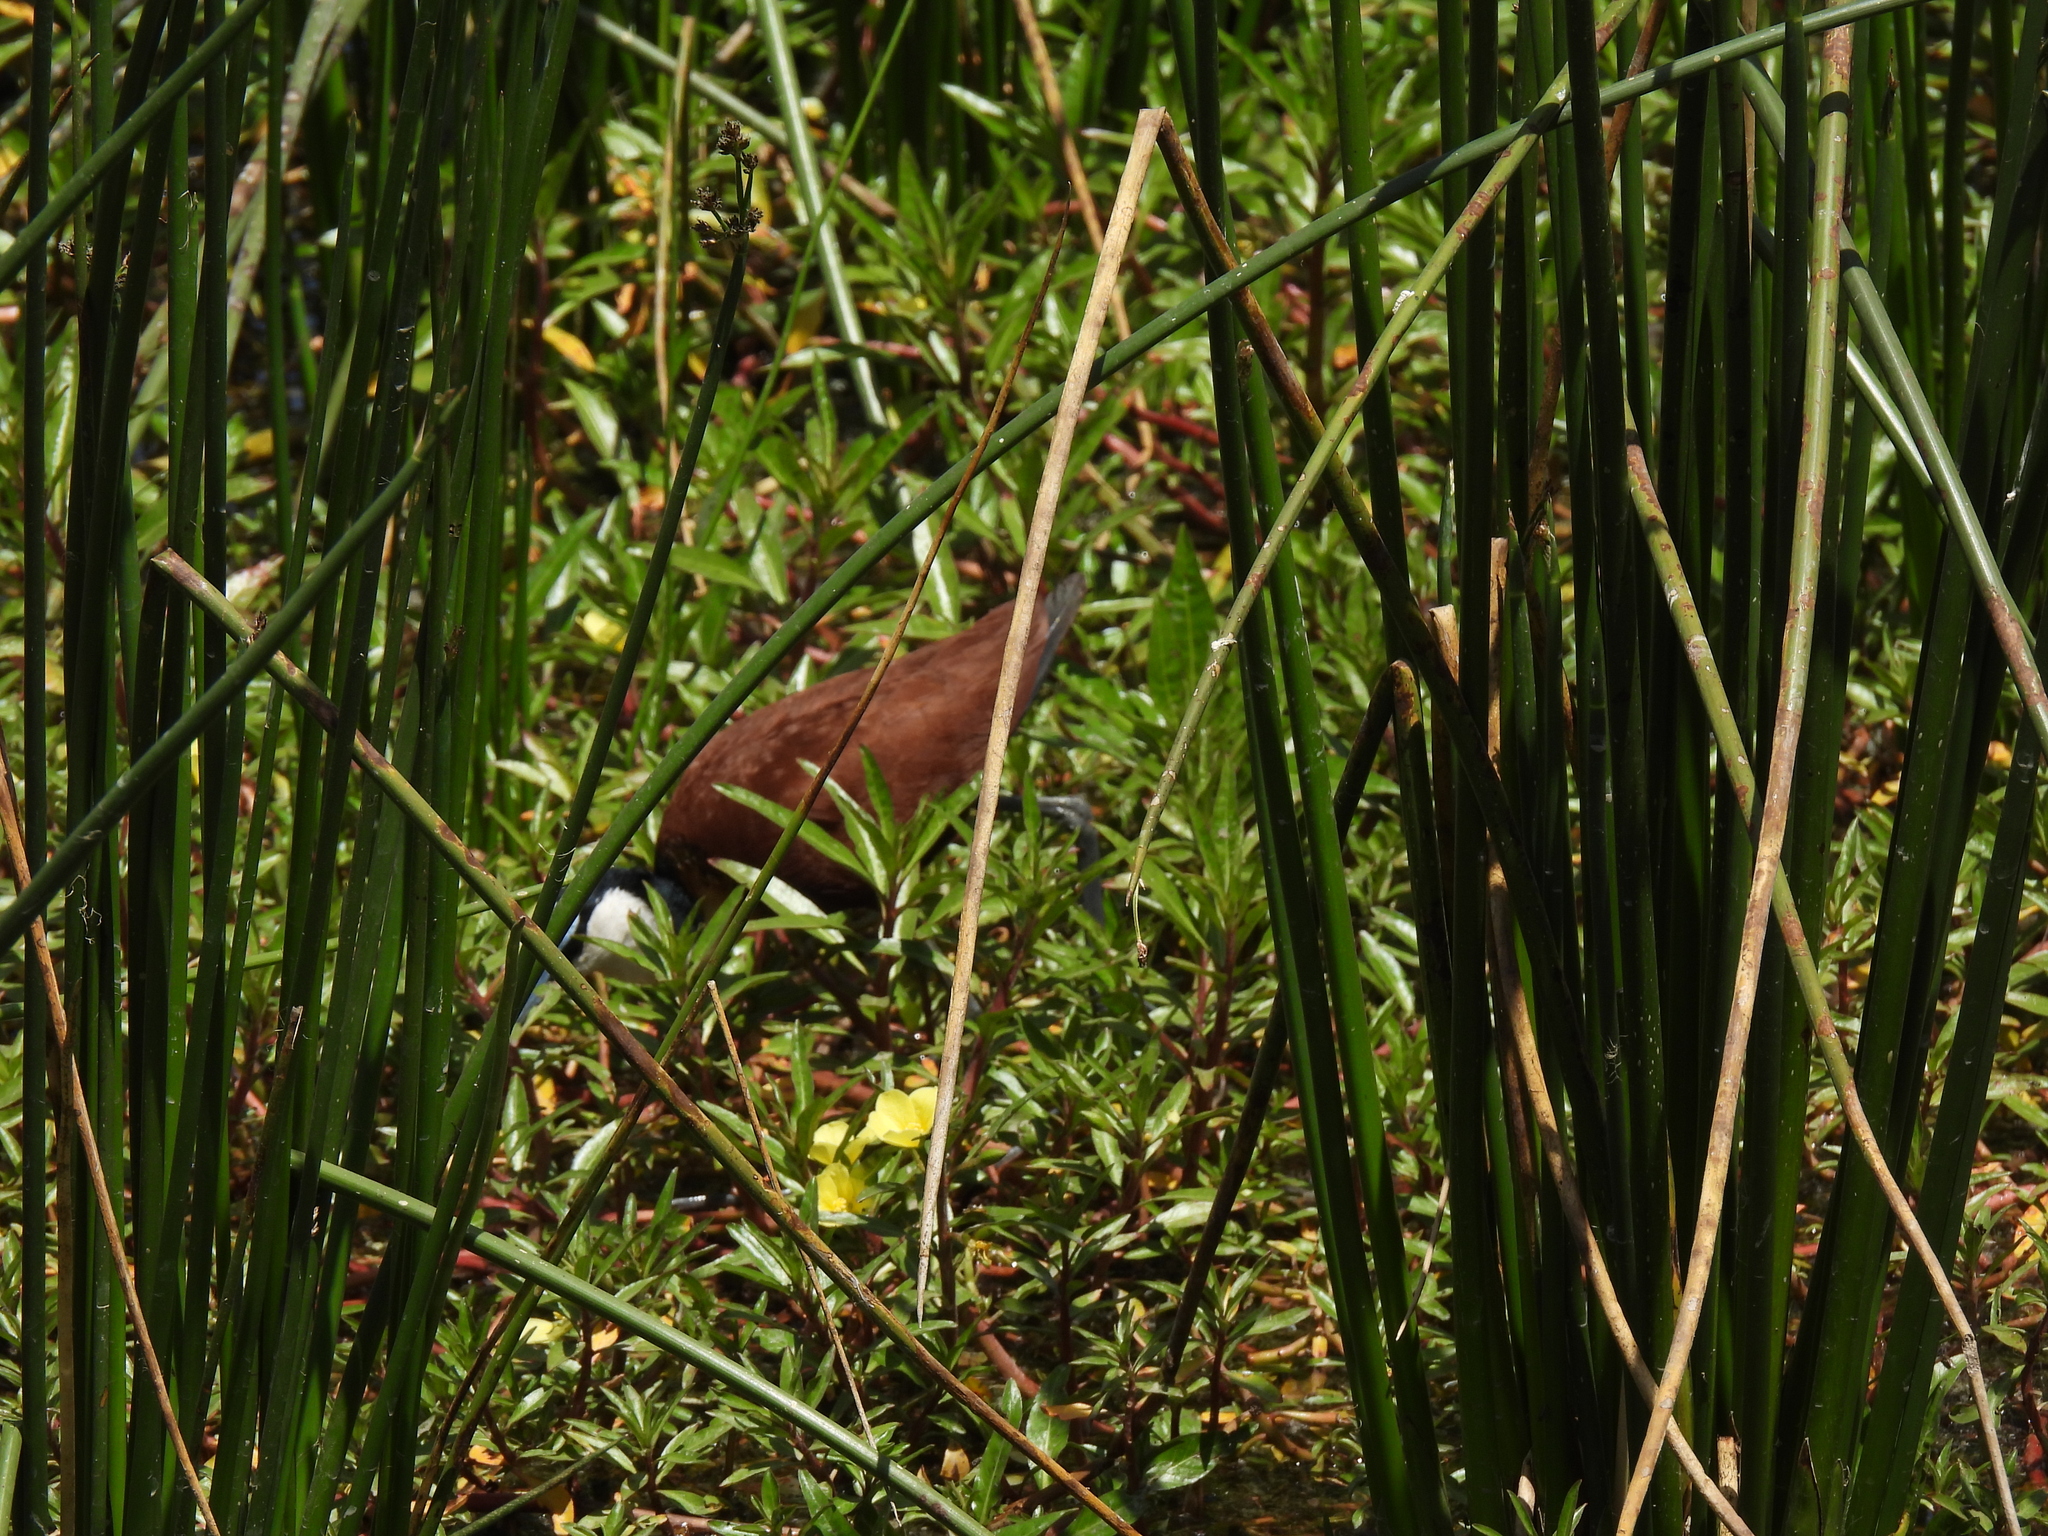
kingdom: Animalia
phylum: Chordata
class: Aves
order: Charadriiformes
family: Jacanidae
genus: Actophilornis
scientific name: Actophilornis africanus
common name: African jacana
